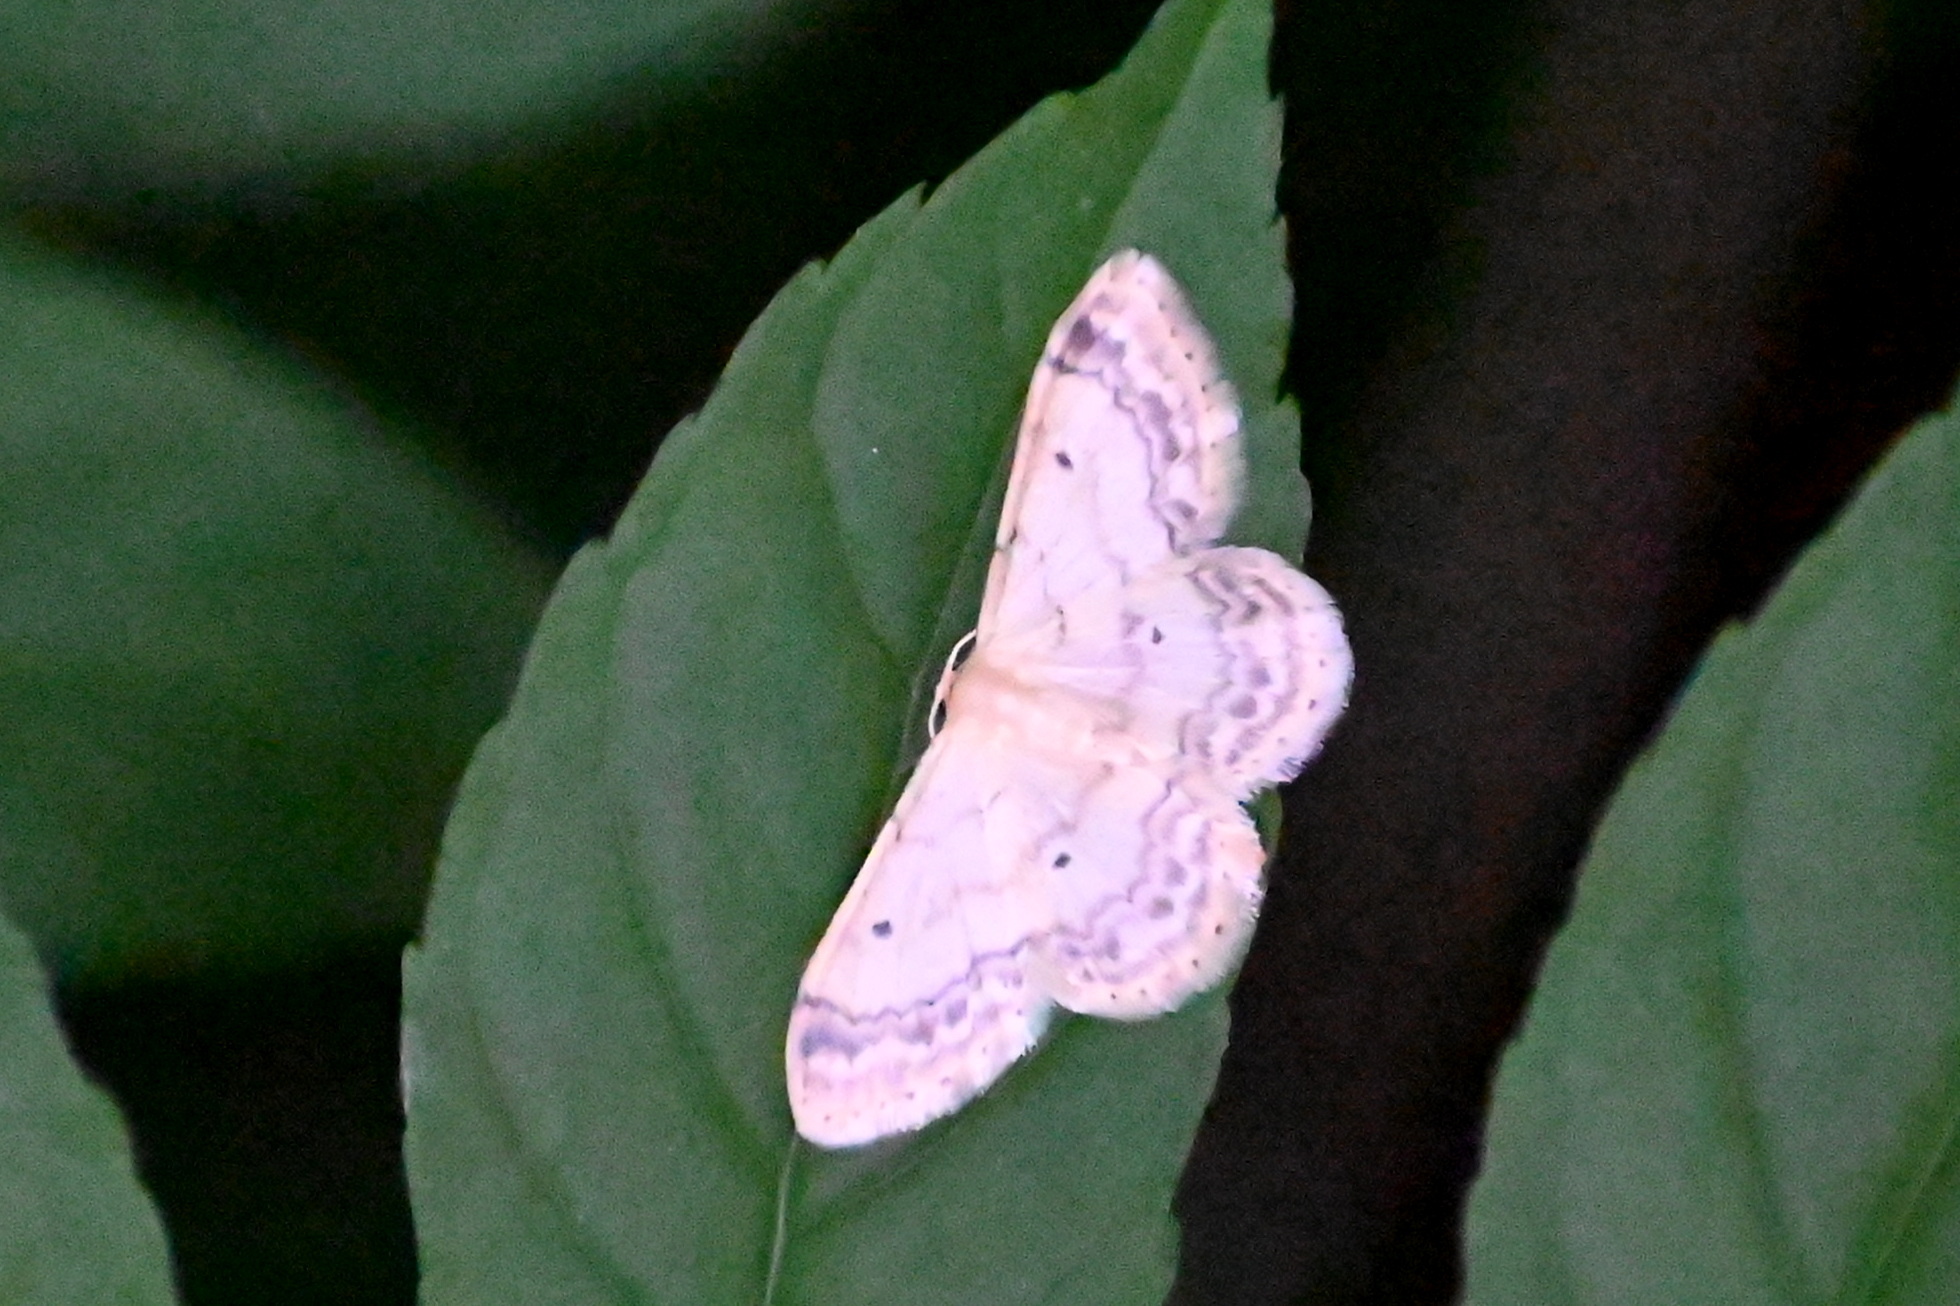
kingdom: Animalia
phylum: Arthropoda
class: Insecta
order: Lepidoptera
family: Geometridae
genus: Idaea
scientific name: Idaea biselata
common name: Small fan-footed wave
